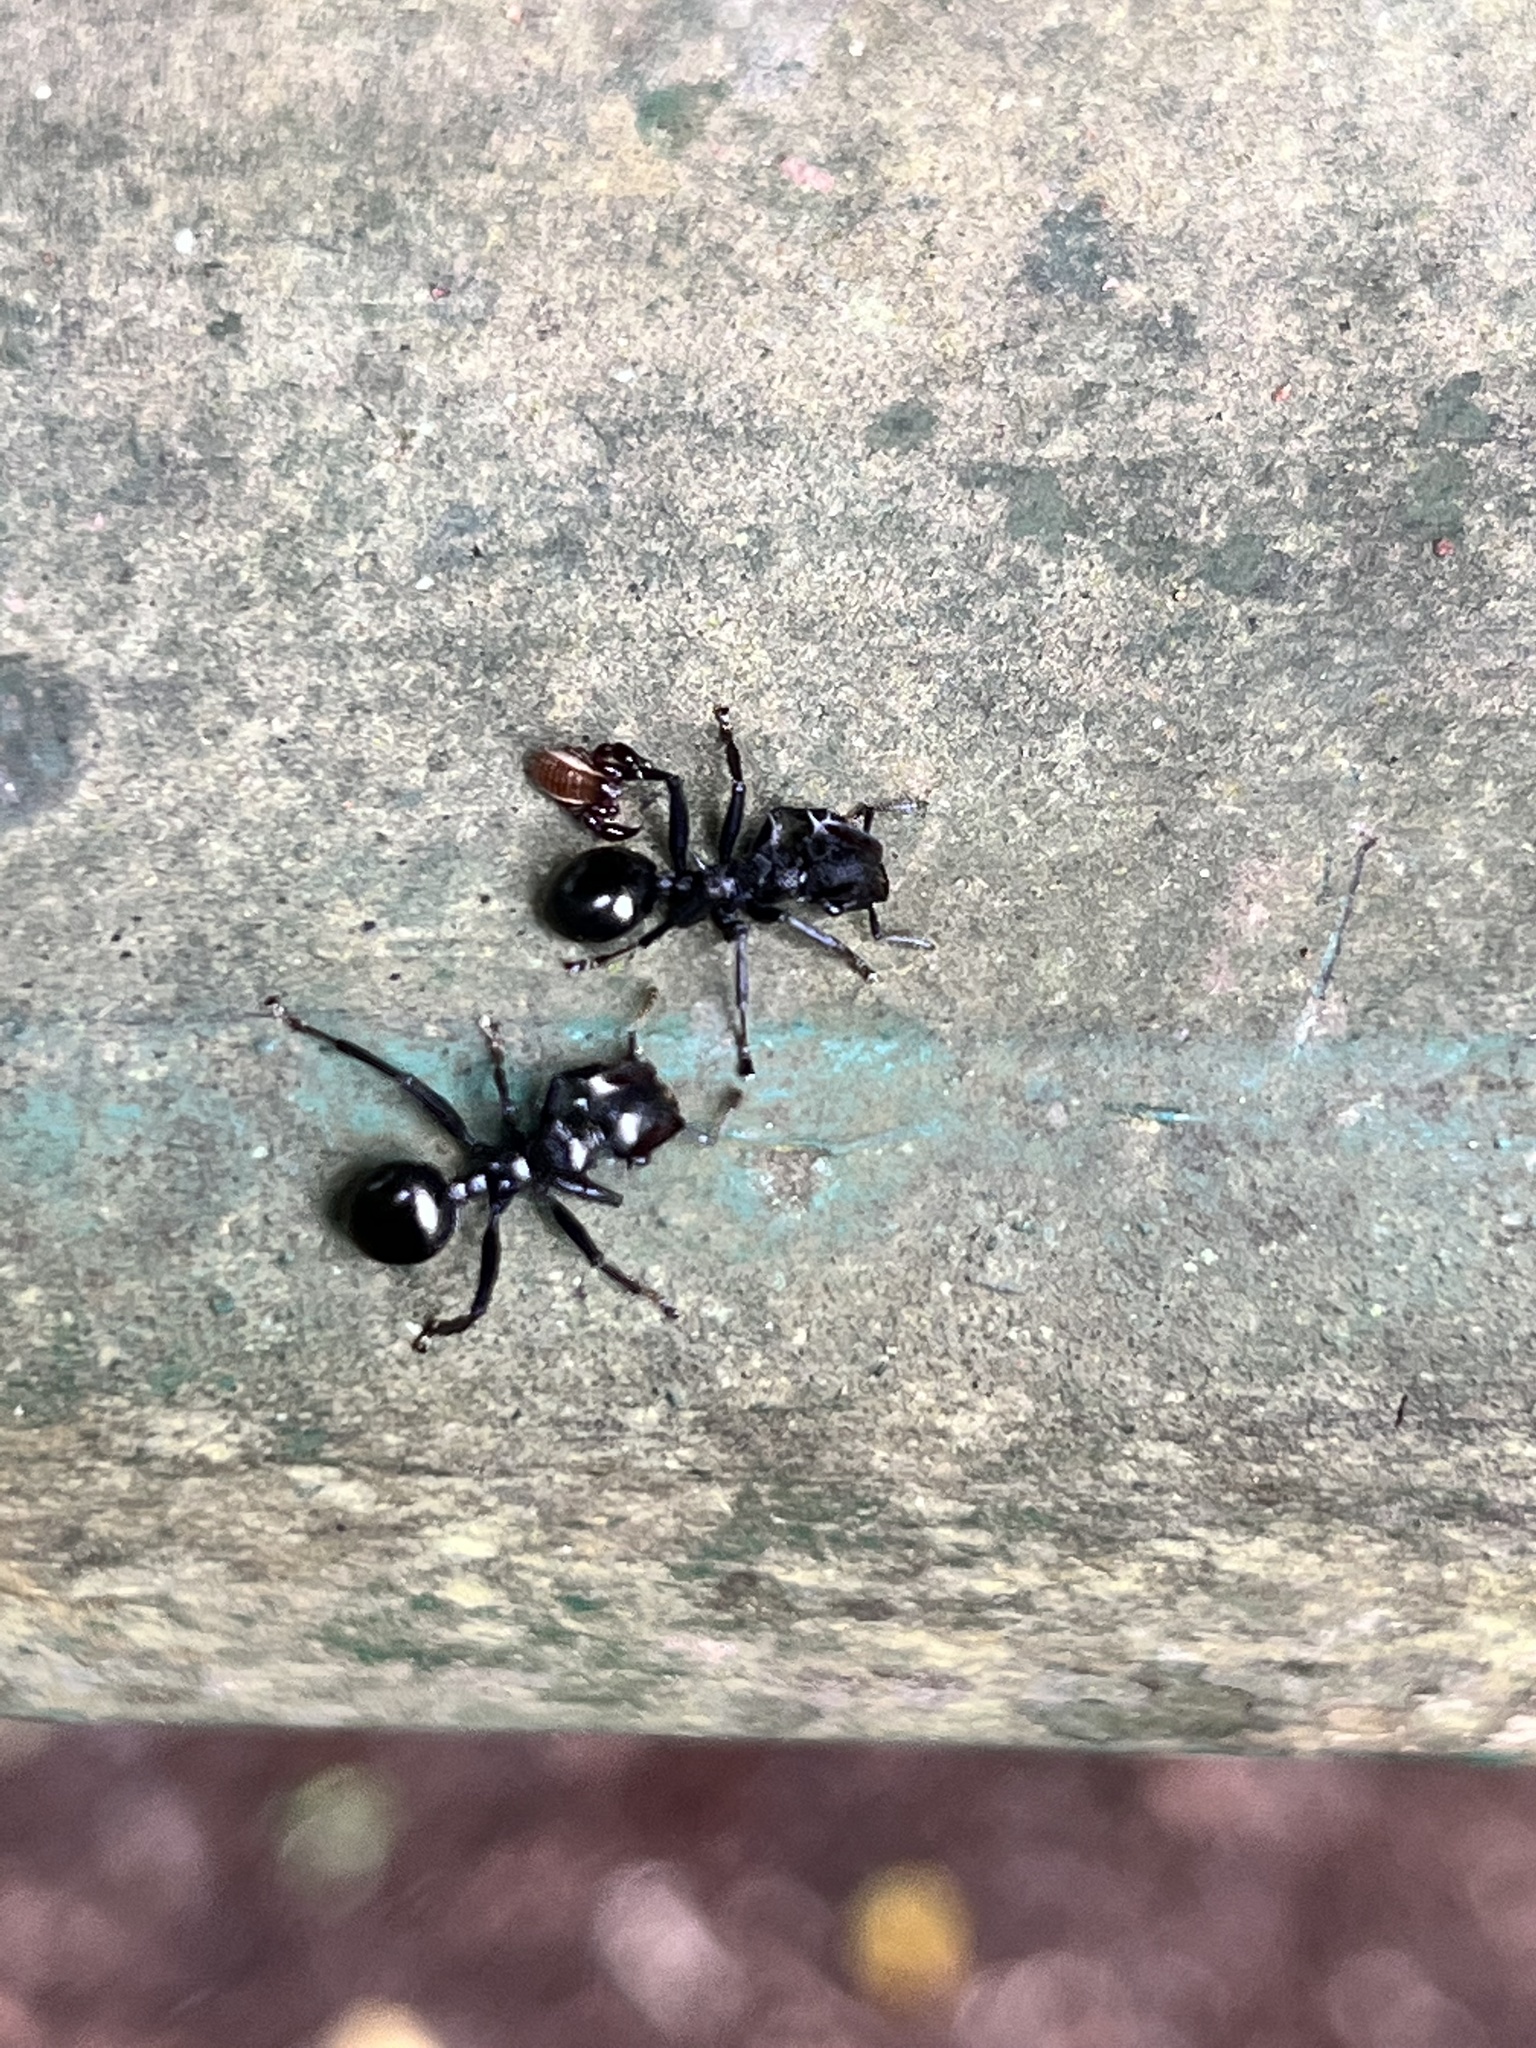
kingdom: Animalia
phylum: Arthropoda
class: Insecta
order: Hymenoptera
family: Formicidae
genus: Cephalotes
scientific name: Cephalotes atratus
